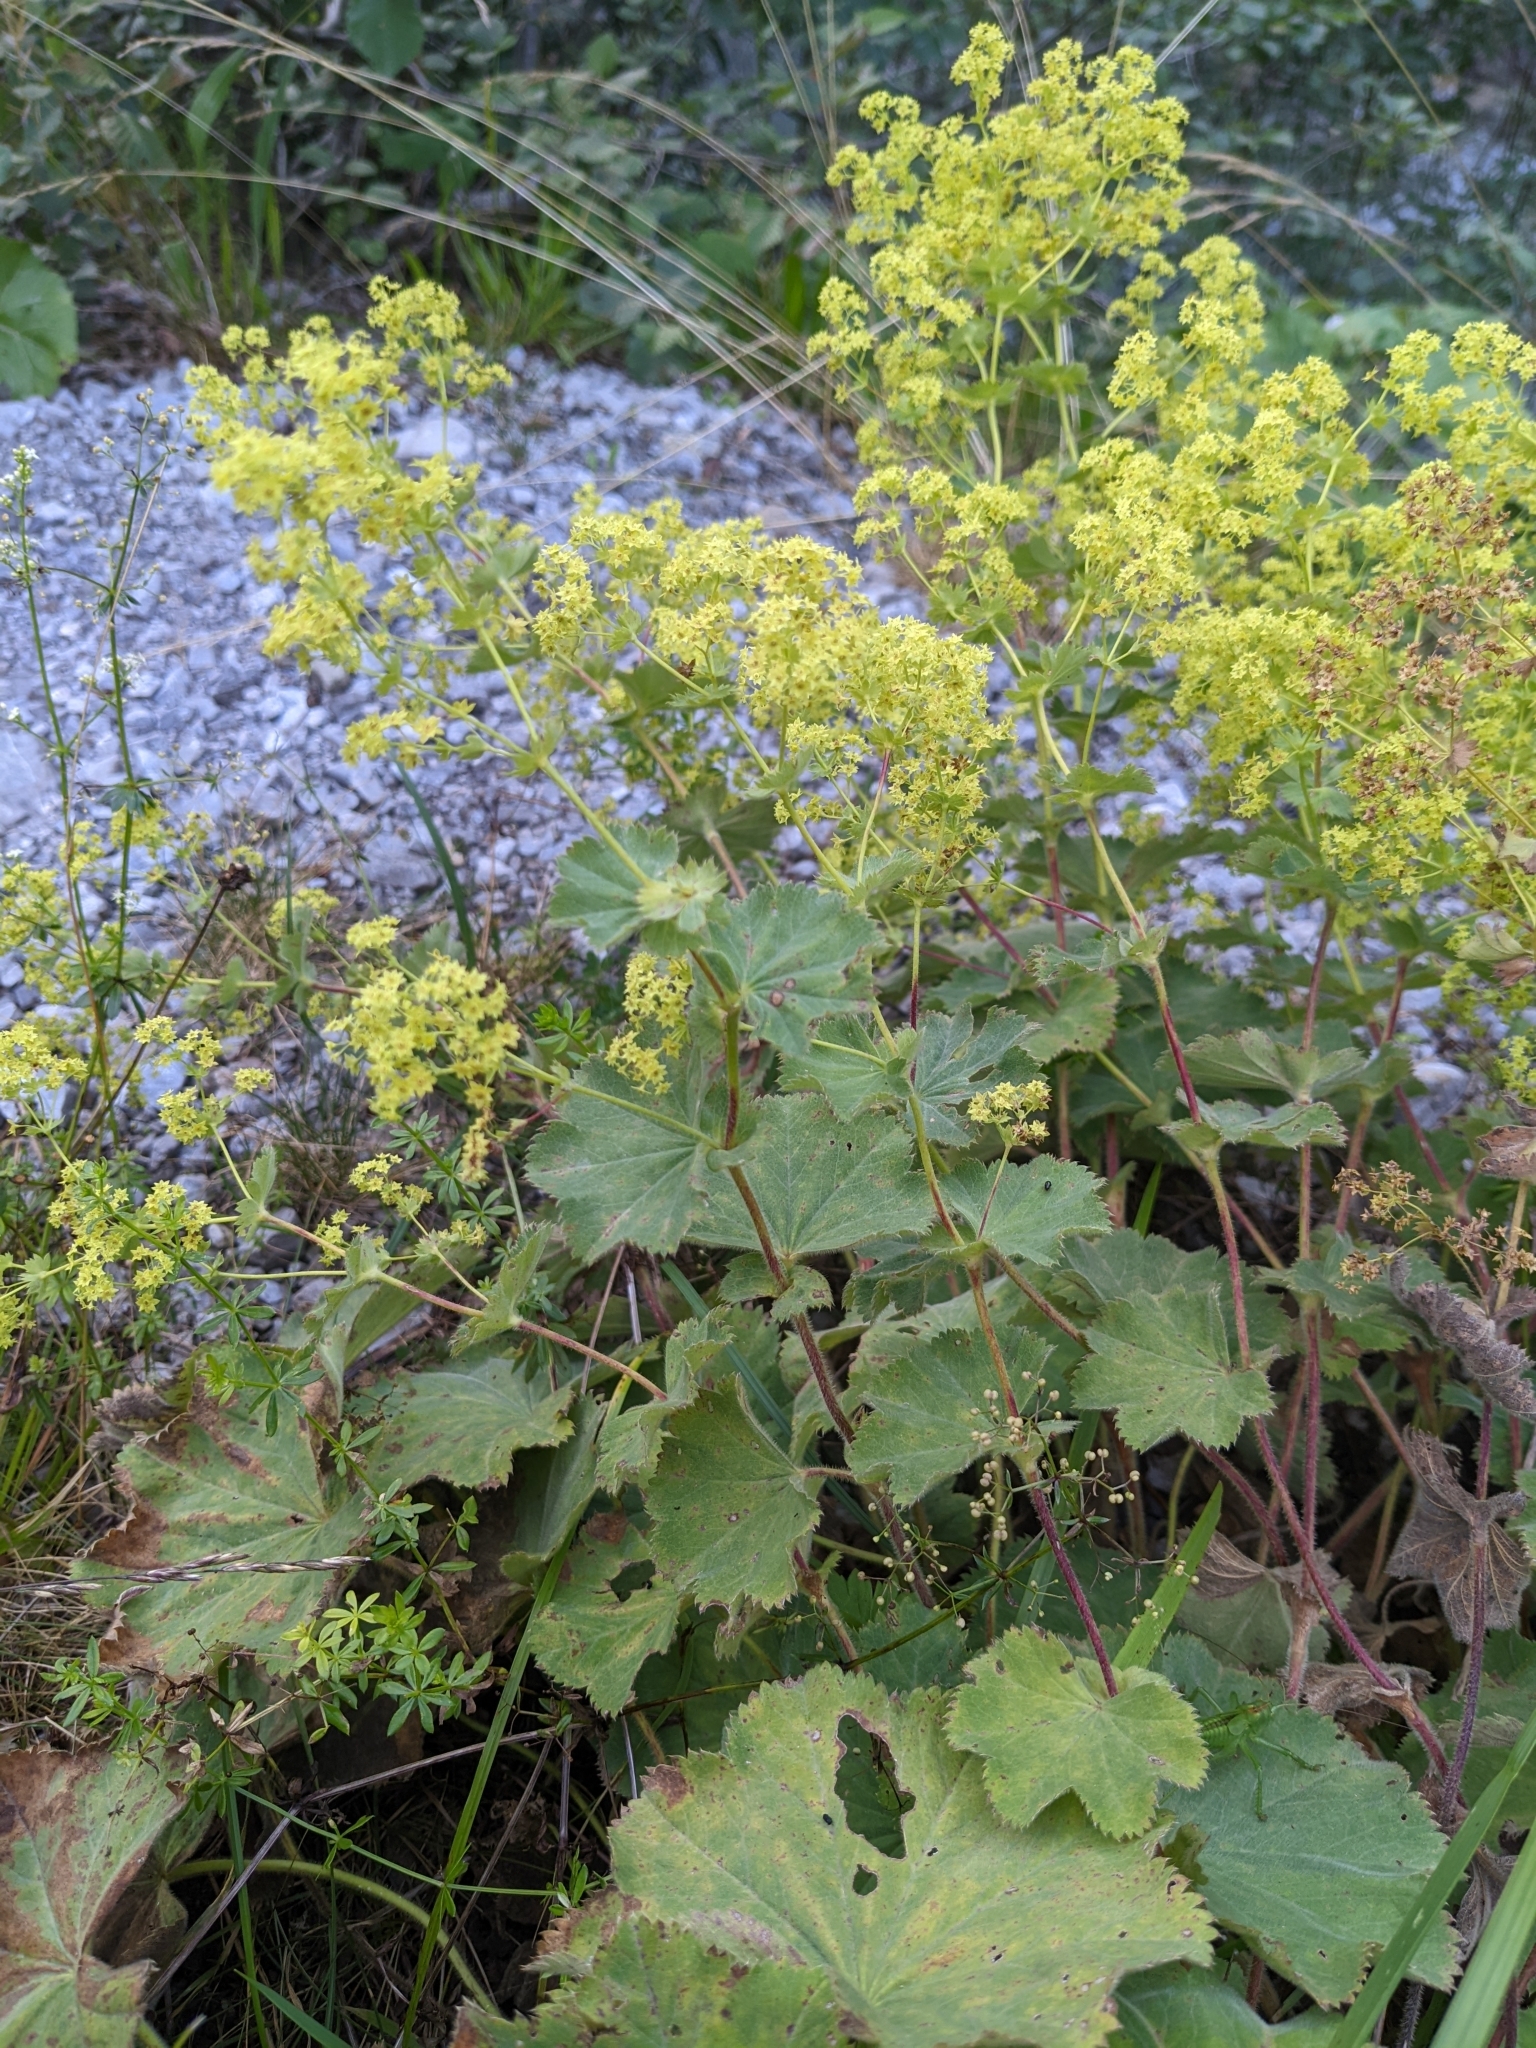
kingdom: Plantae
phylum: Tracheophyta
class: Magnoliopsida
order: Rosales
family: Rosaceae
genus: Alchemilla
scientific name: Alchemilla mollis
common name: Lady's-mantle
